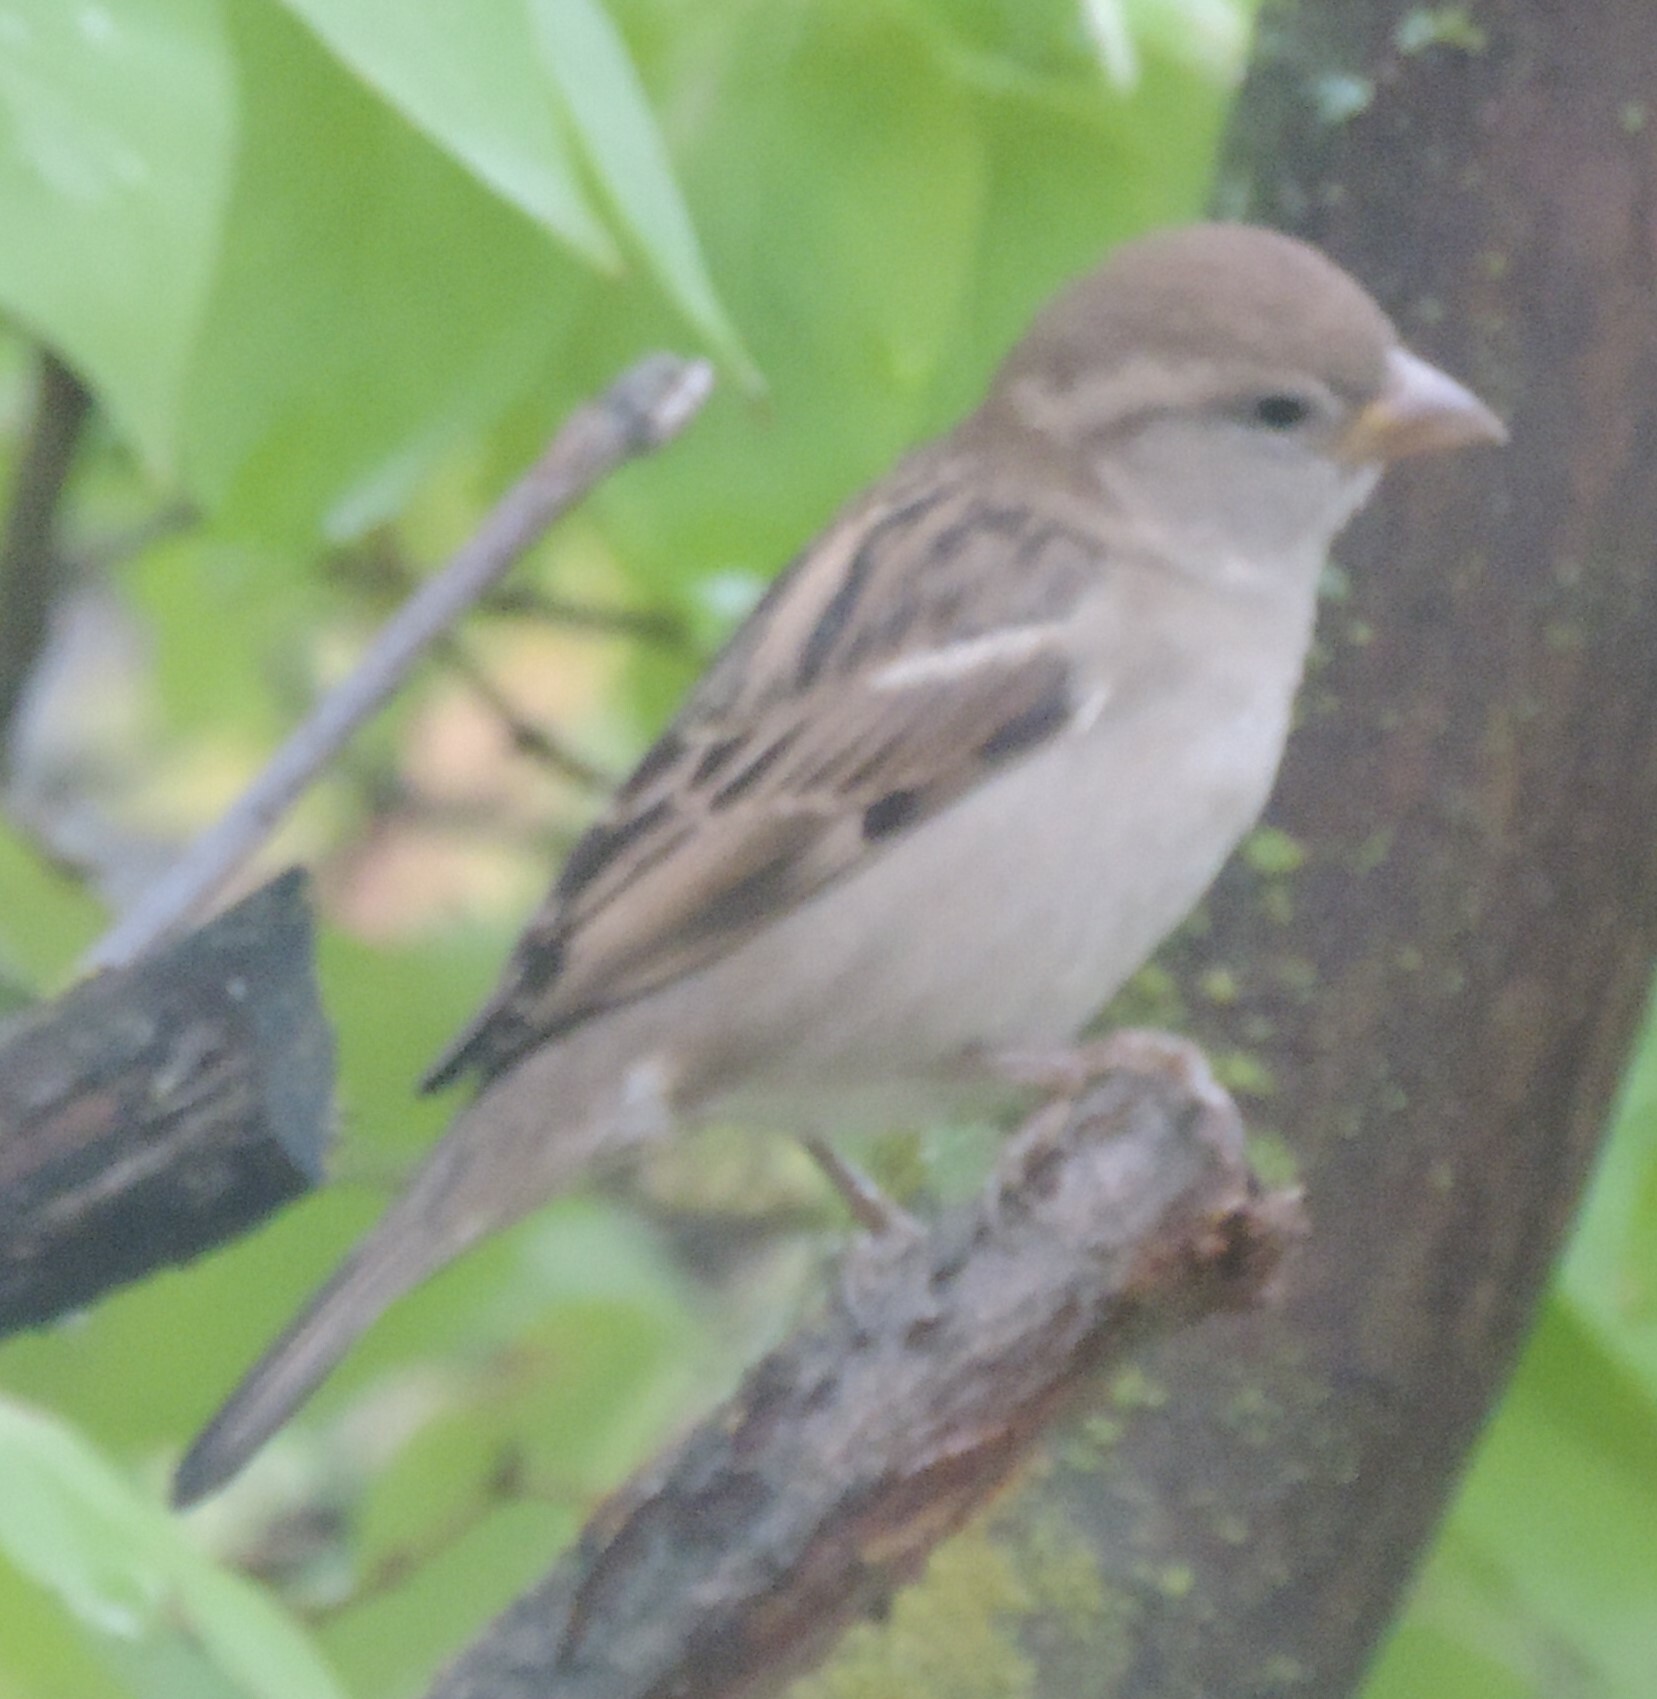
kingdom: Animalia
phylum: Chordata
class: Aves
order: Passeriformes
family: Passeridae
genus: Passer
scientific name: Passer domesticus
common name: House sparrow
